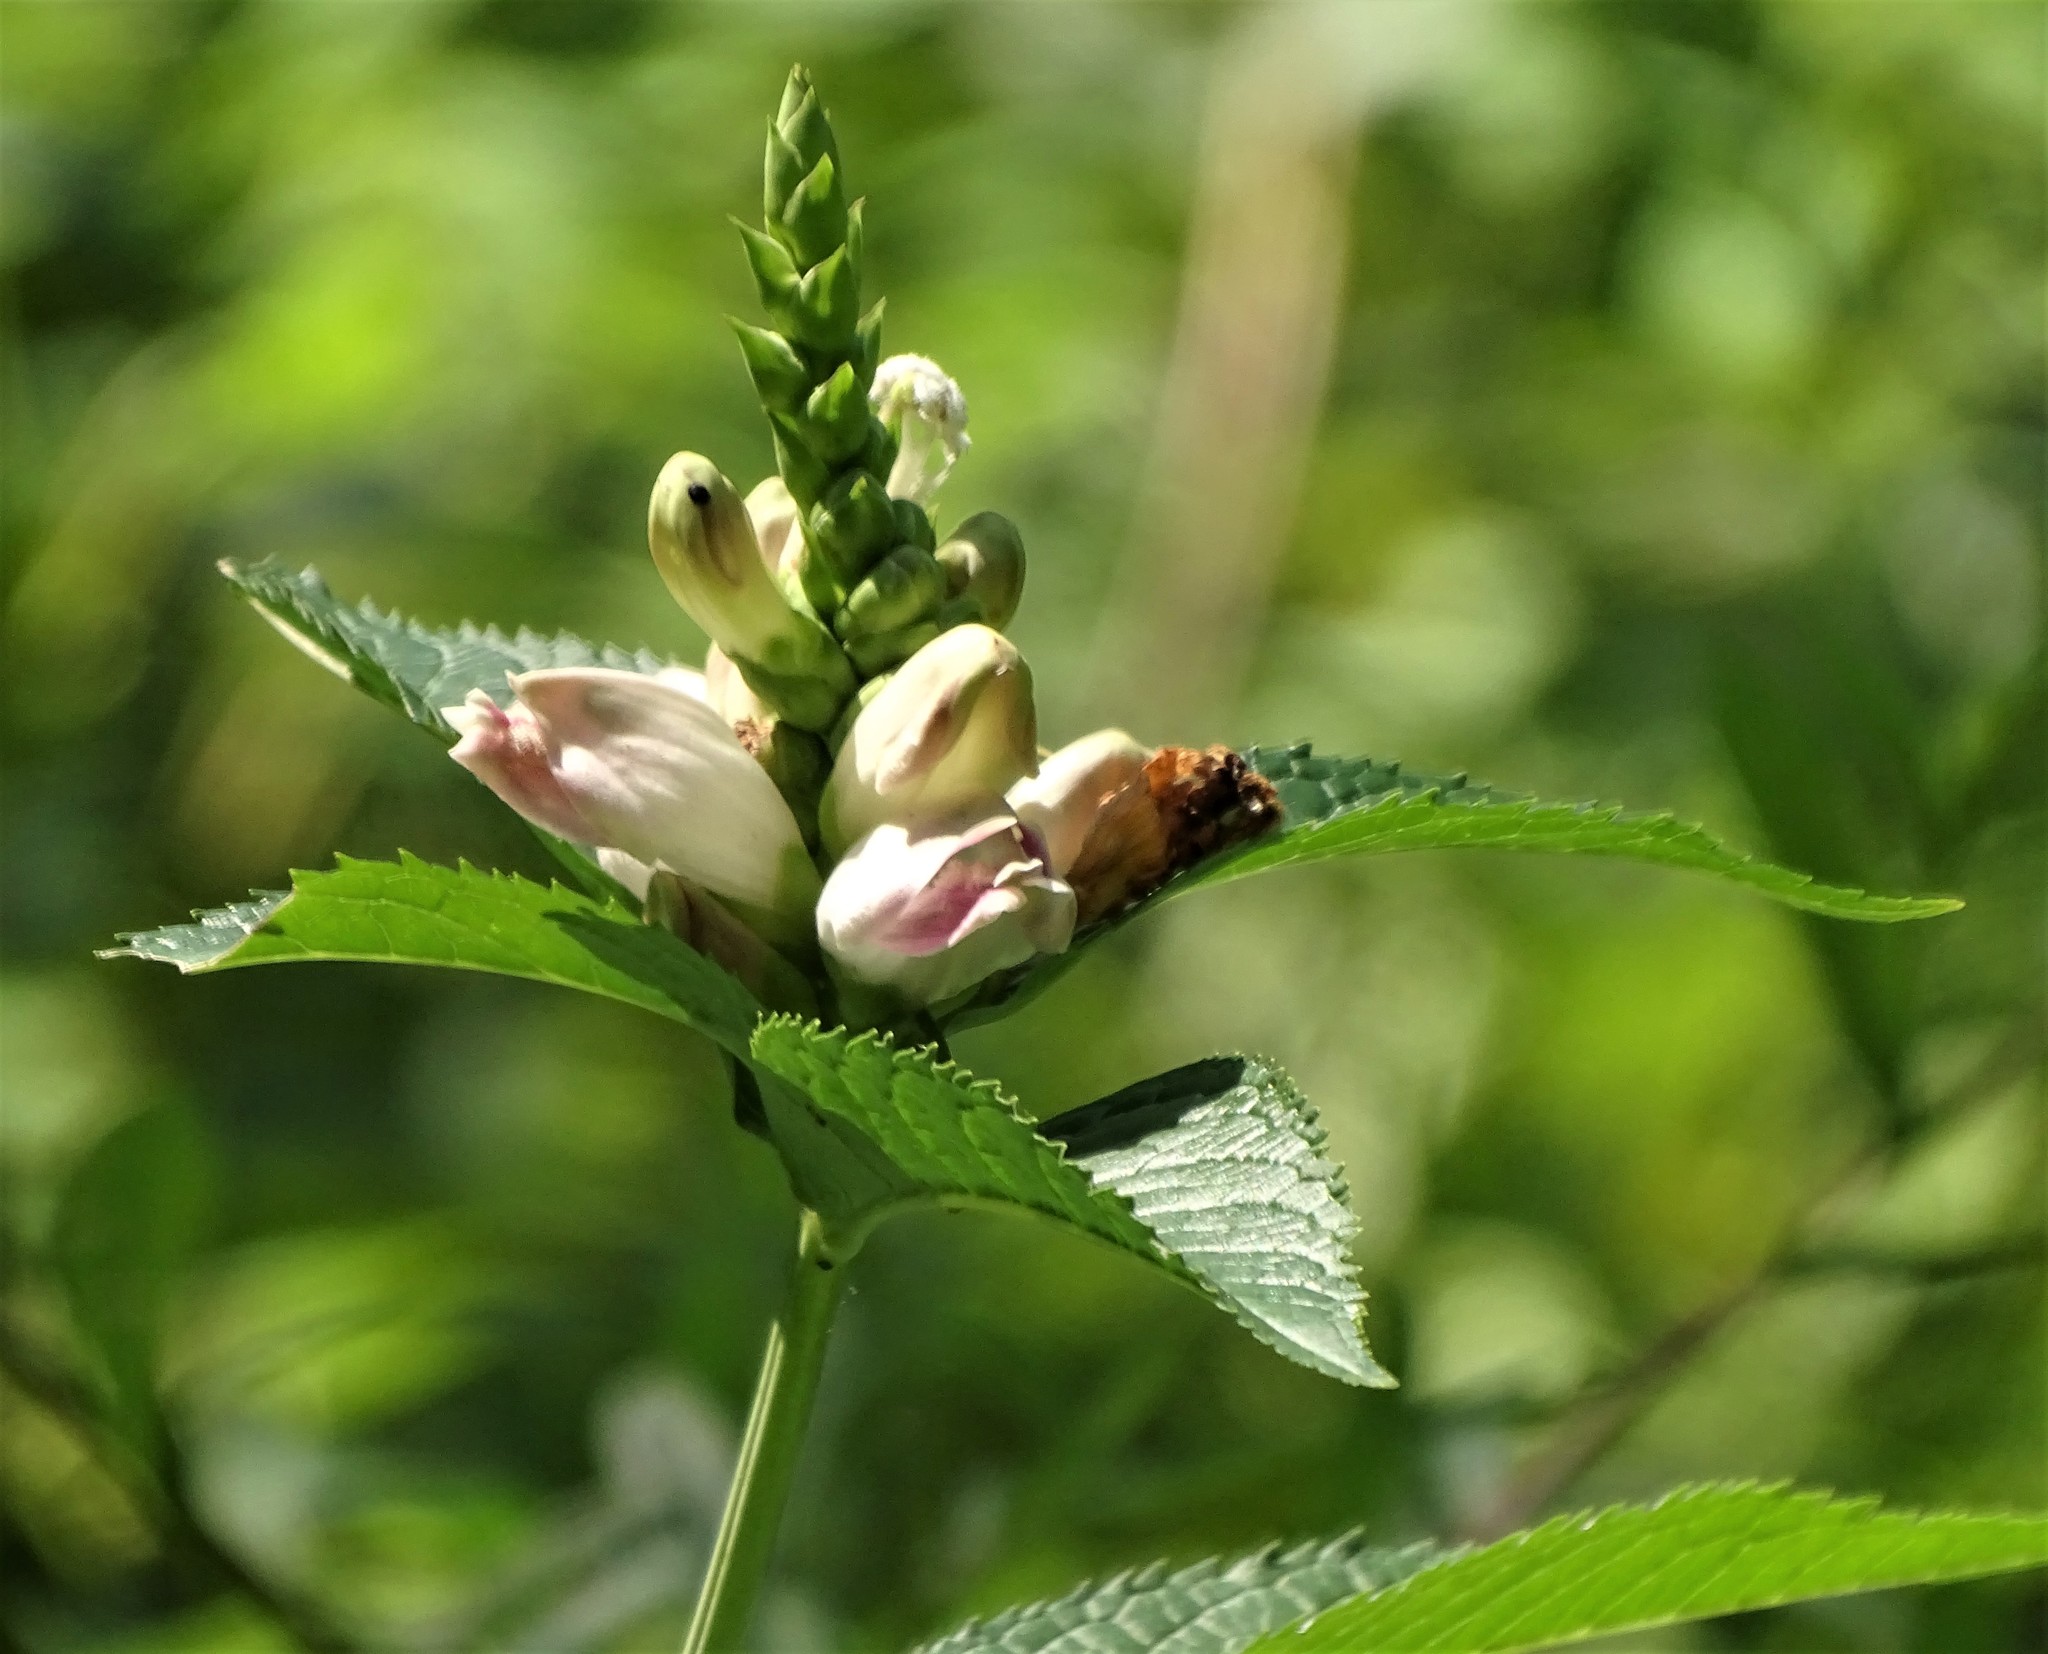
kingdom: Plantae
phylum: Tracheophyta
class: Magnoliopsida
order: Lamiales
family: Plantaginaceae
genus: Chelone
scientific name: Chelone glabra
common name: Snakehead
